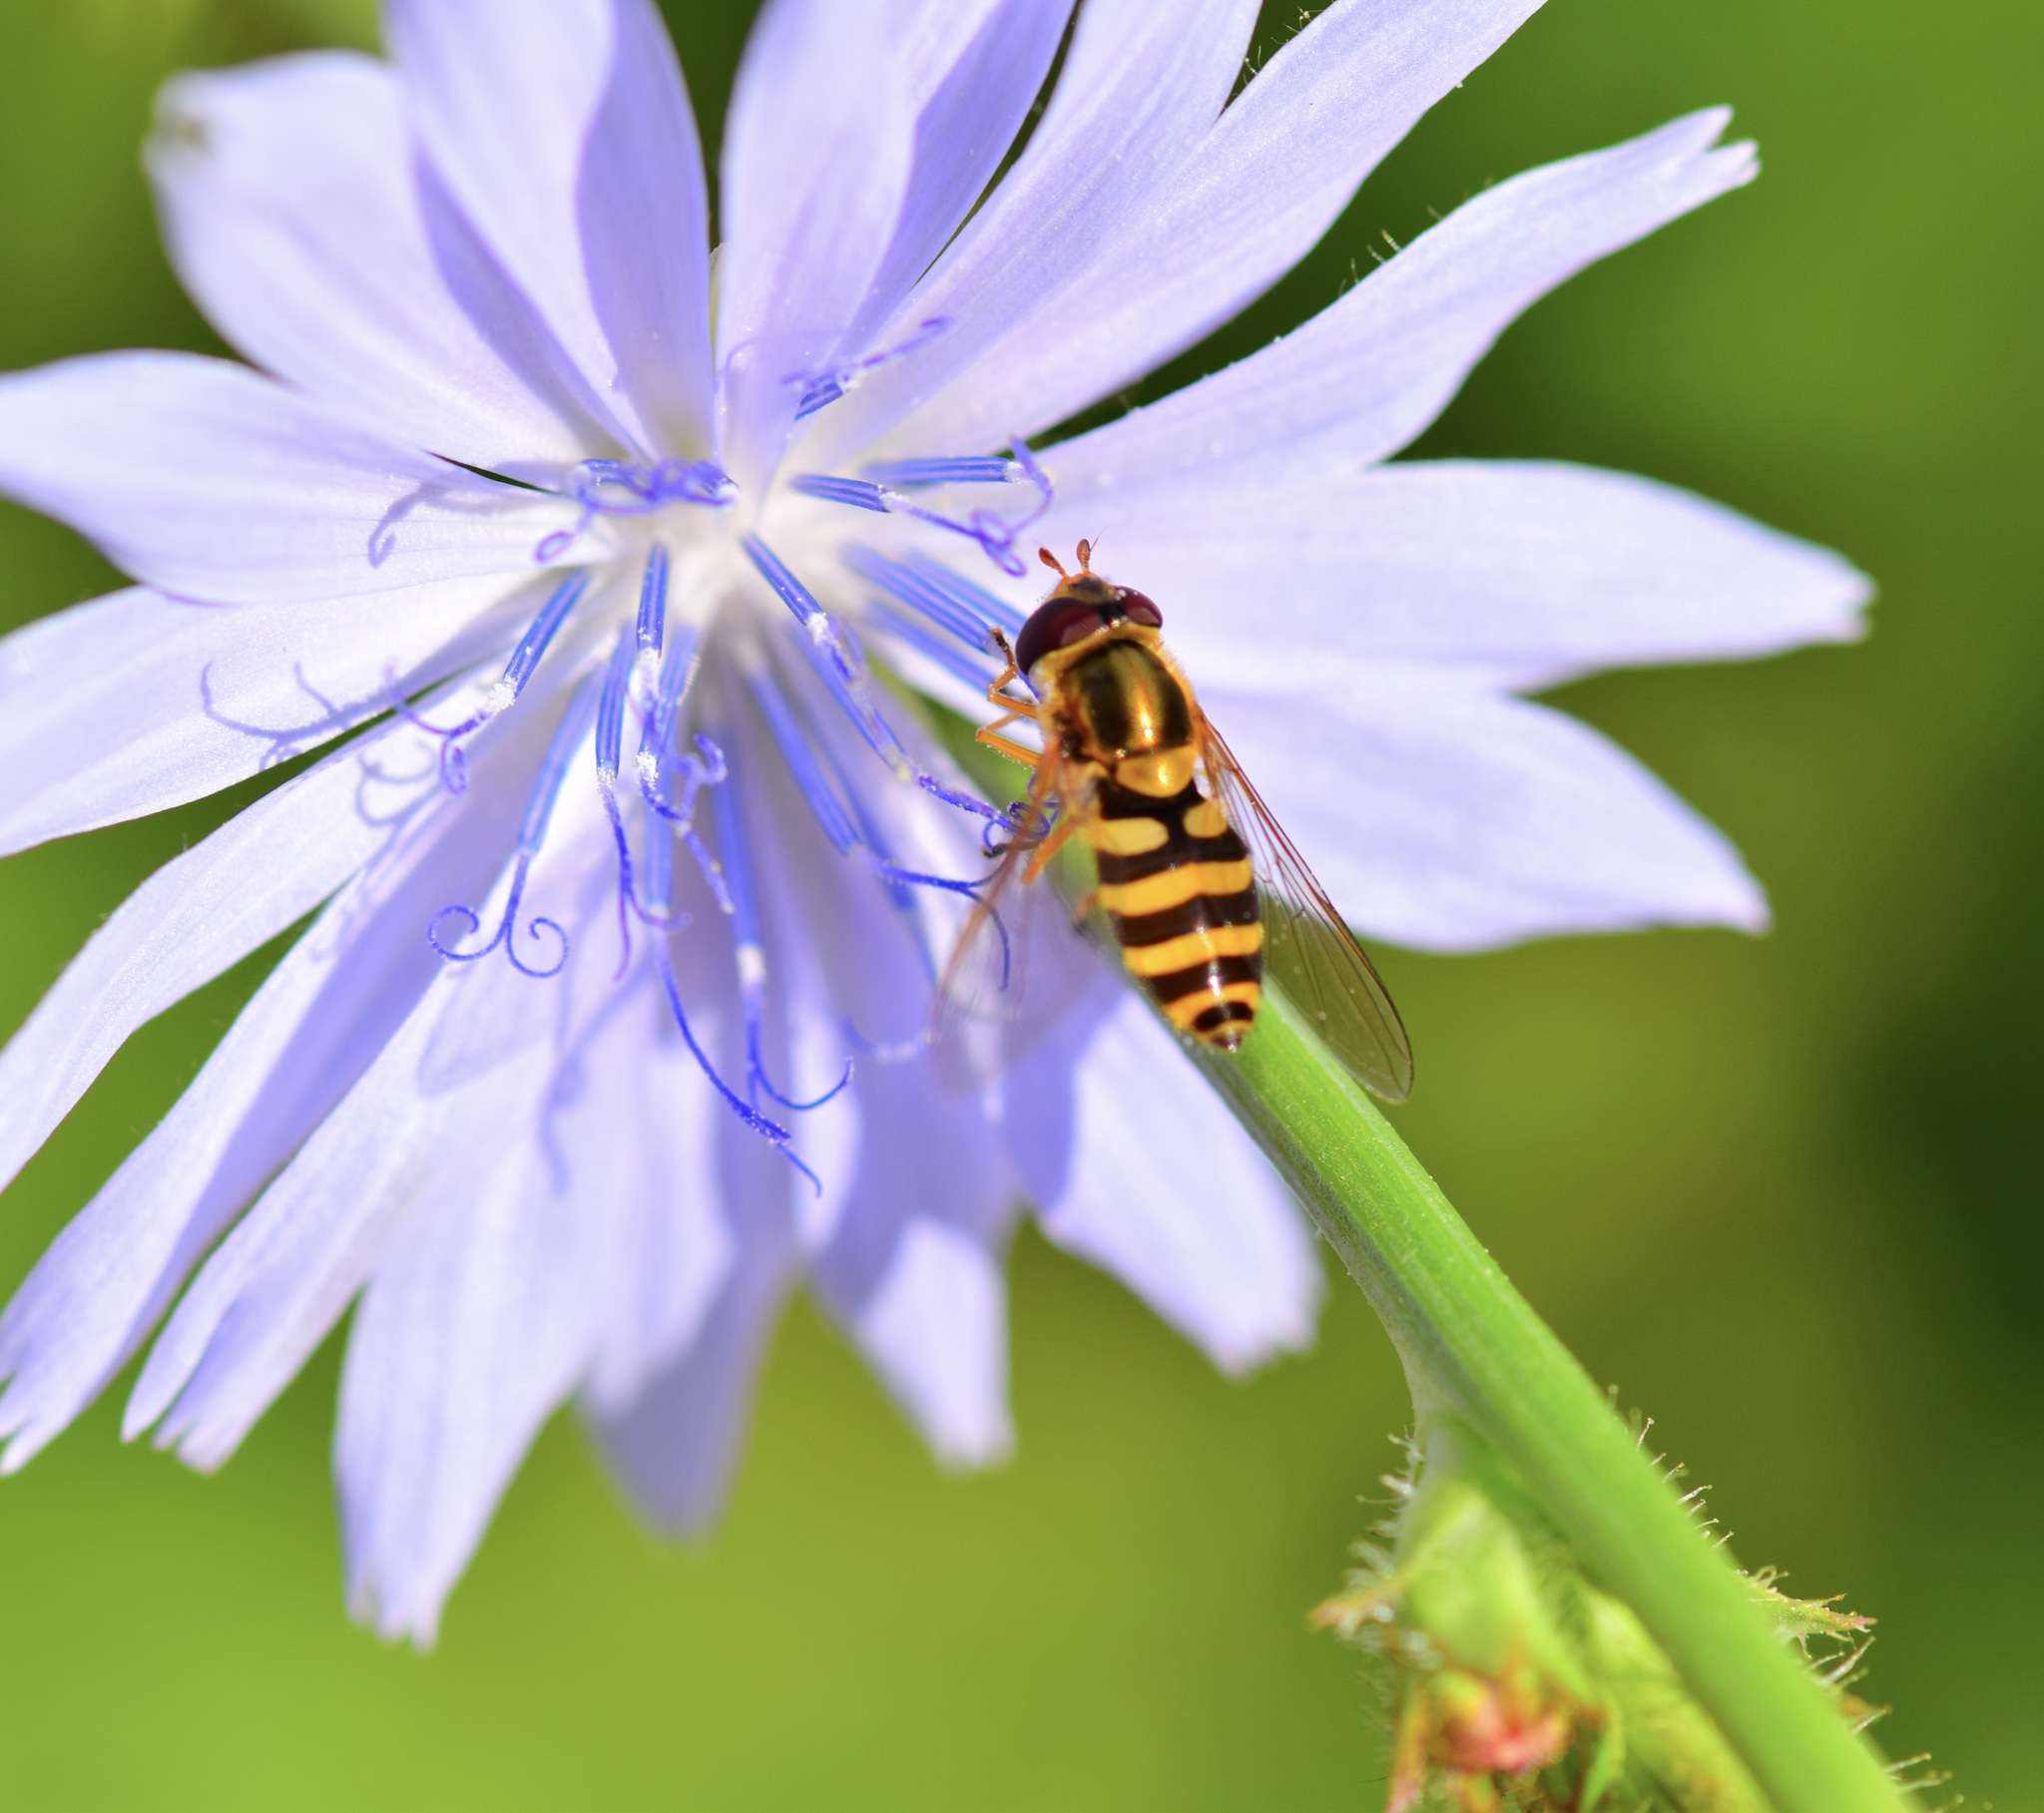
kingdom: Animalia
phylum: Arthropoda
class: Insecta
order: Diptera
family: Syrphidae
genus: Syrphus
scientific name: Syrphus ribesii
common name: Common flower fly
